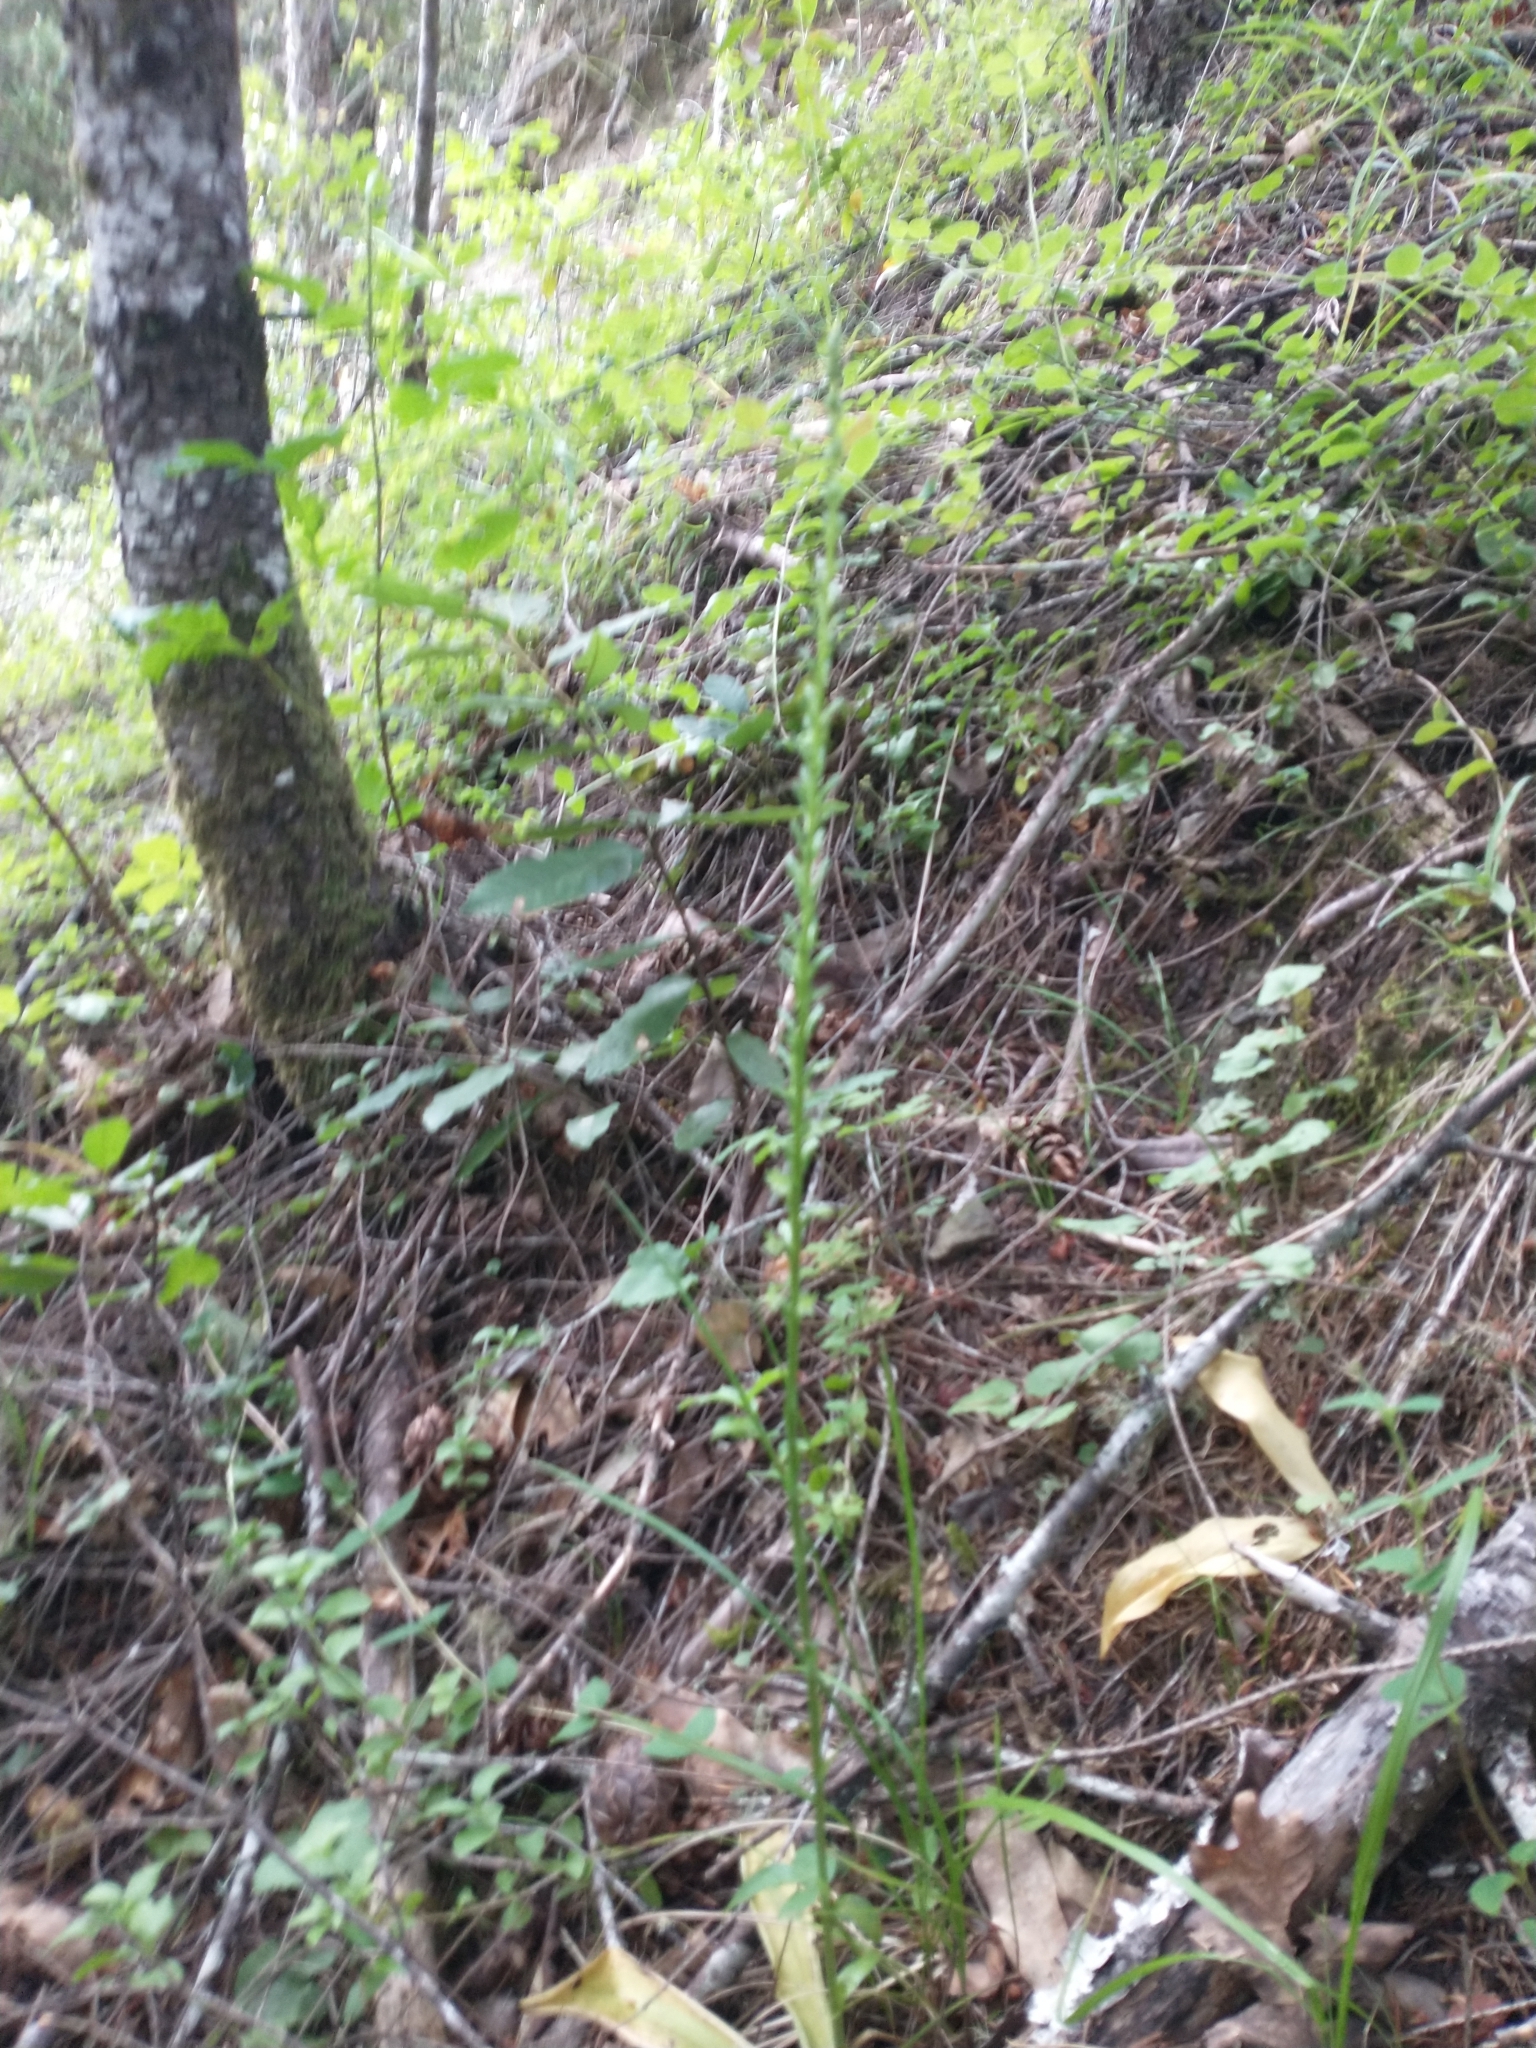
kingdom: Plantae
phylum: Tracheophyta
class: Liliopsida
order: Asparagales
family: Orchidaceae
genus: Platanthera
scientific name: Platanthera elongata
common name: Dense-flowered rein orchid
